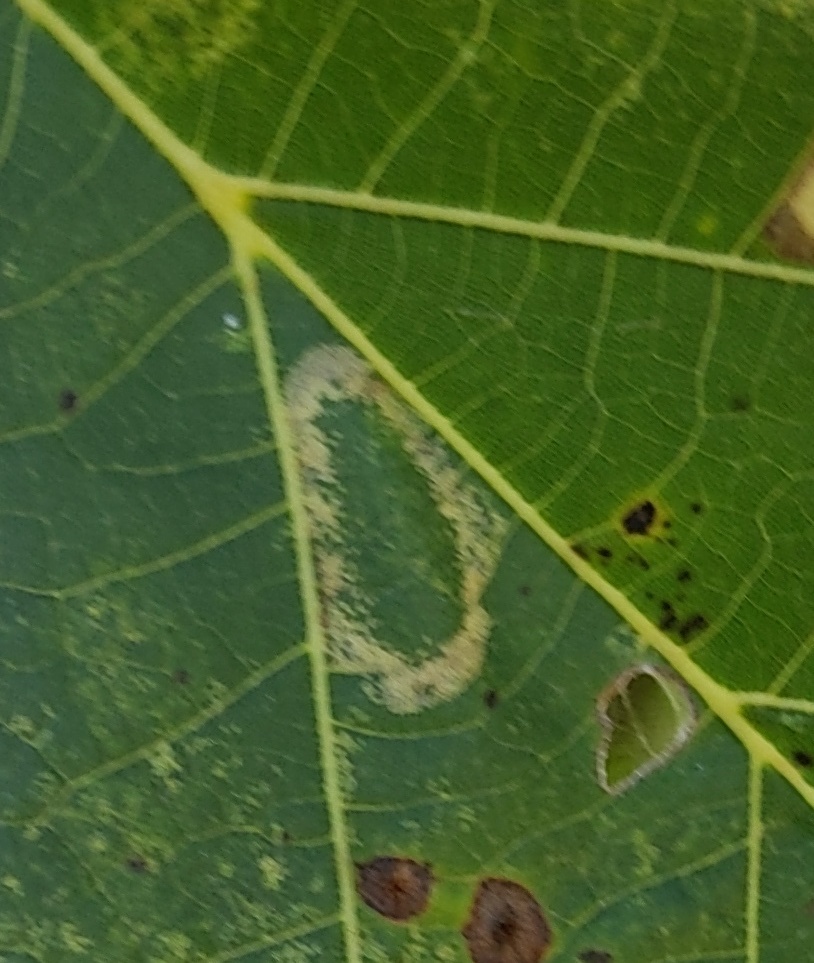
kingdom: Animalia
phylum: Arthropoda
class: Insecta
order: Lepidoptera
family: Gracillariidae
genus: Phyllonorycter
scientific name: Phyllonorycter lucetiella
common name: Basswood miner moth
